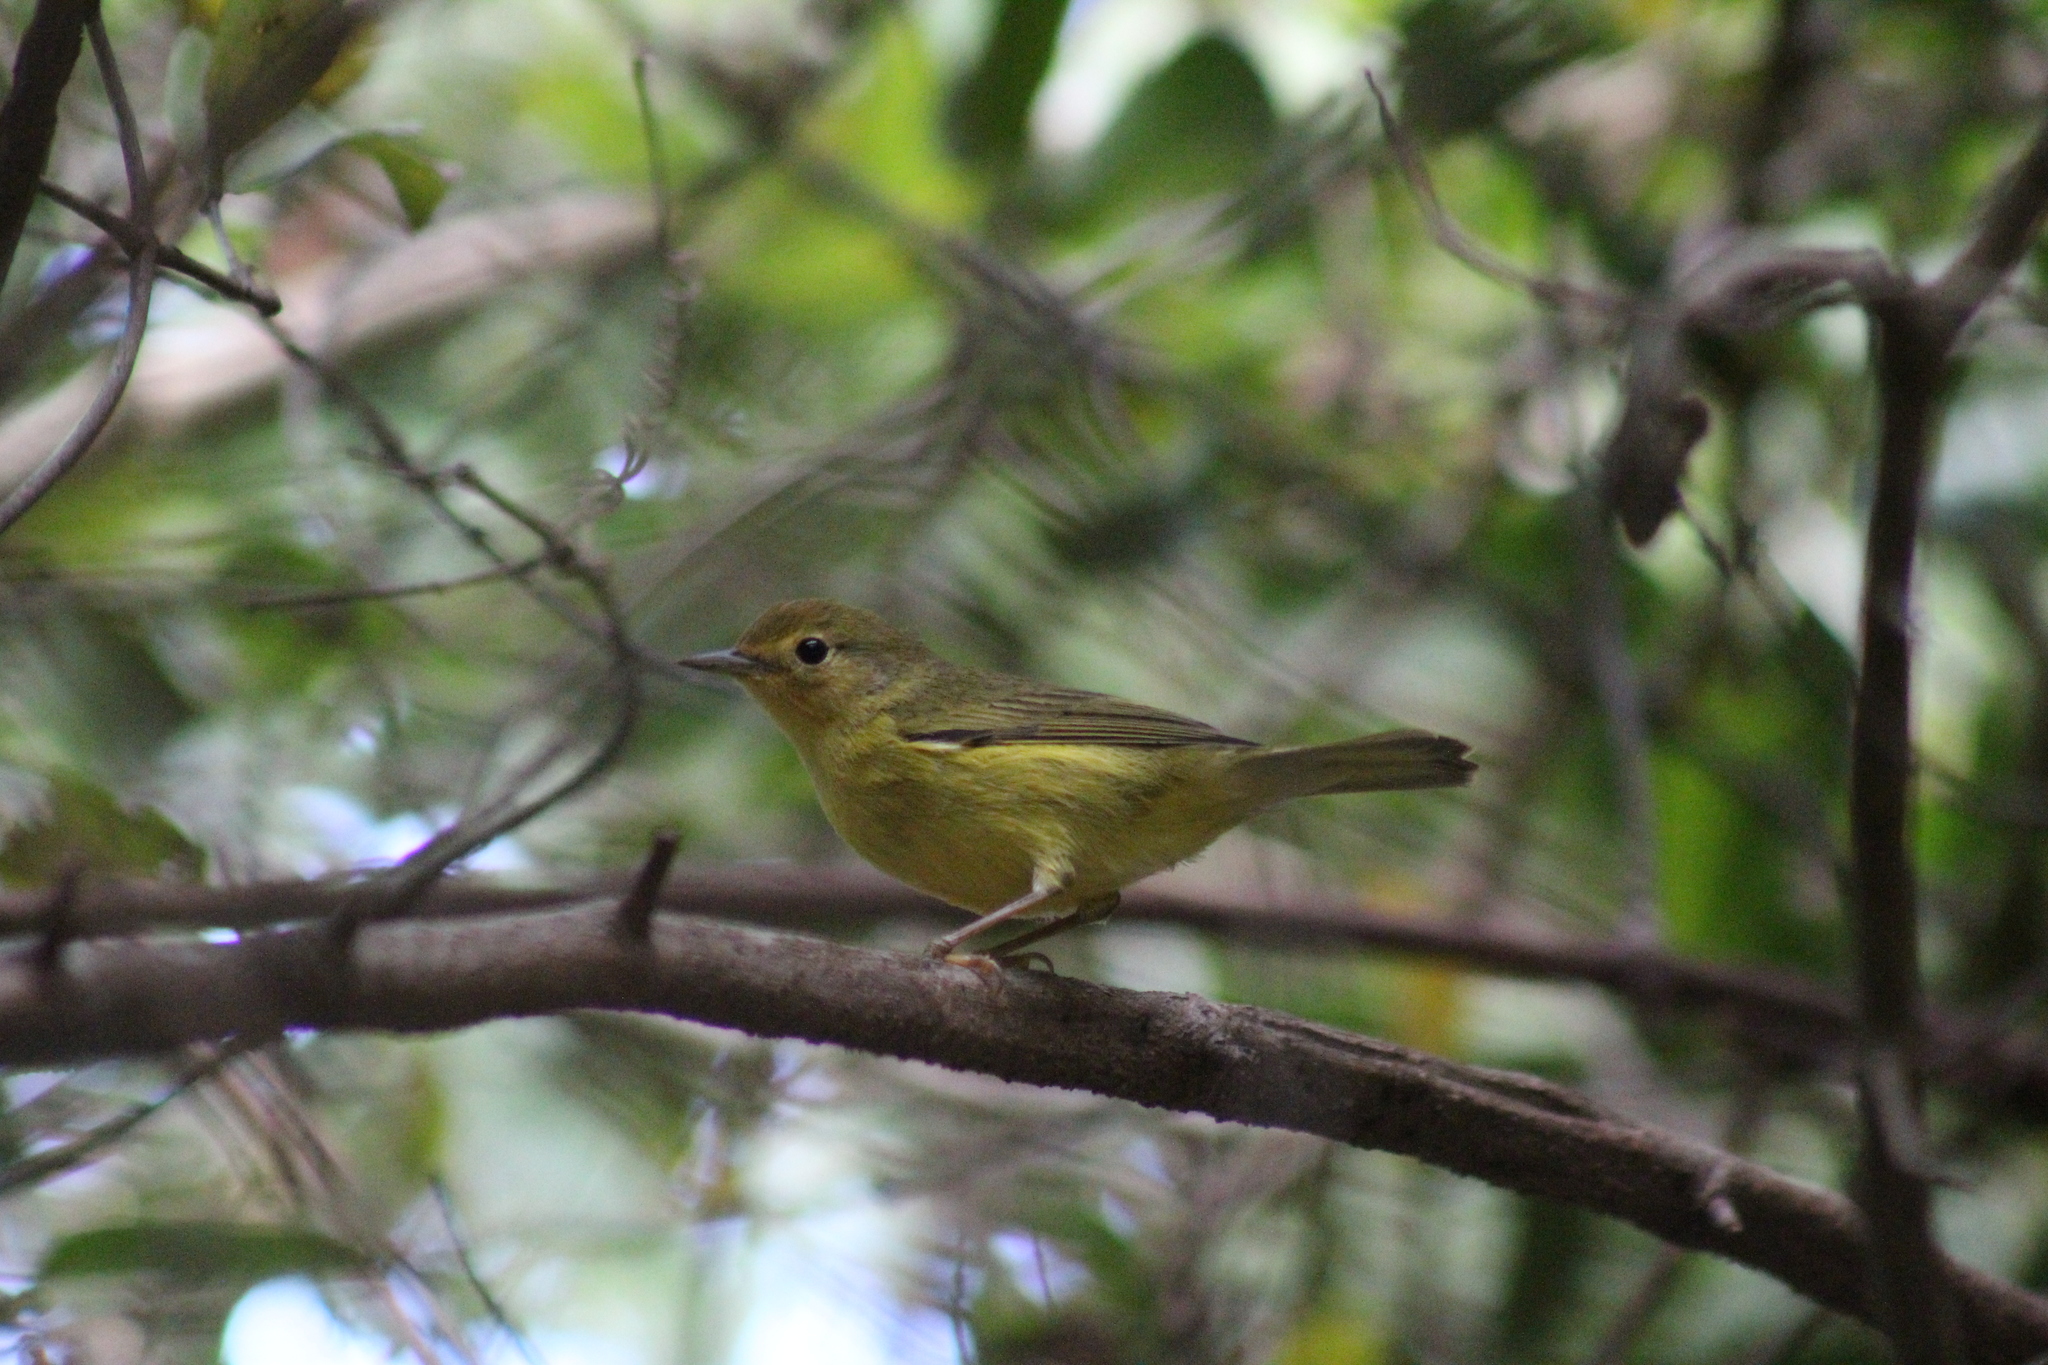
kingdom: Animalia
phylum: Chordata
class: Aves
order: Passeriformes
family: Parulidae
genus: Setophaga
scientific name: Setophaga petechia
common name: Yellow warbler
